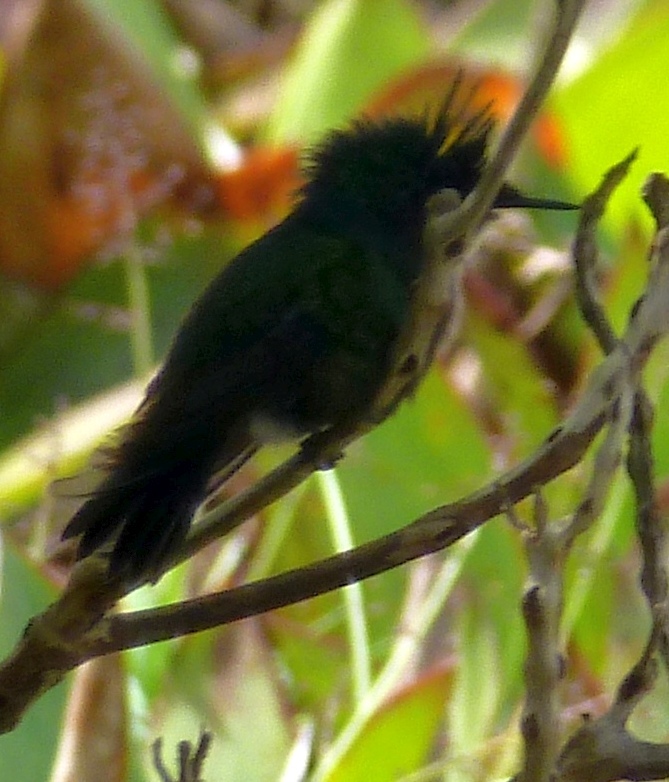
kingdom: Animalia
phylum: Chordata
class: Aves
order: Apodiformes
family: Trochilidae
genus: Orthorhyncus
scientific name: Orthorhyncus cristatus
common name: Antillean crested hummingbird
